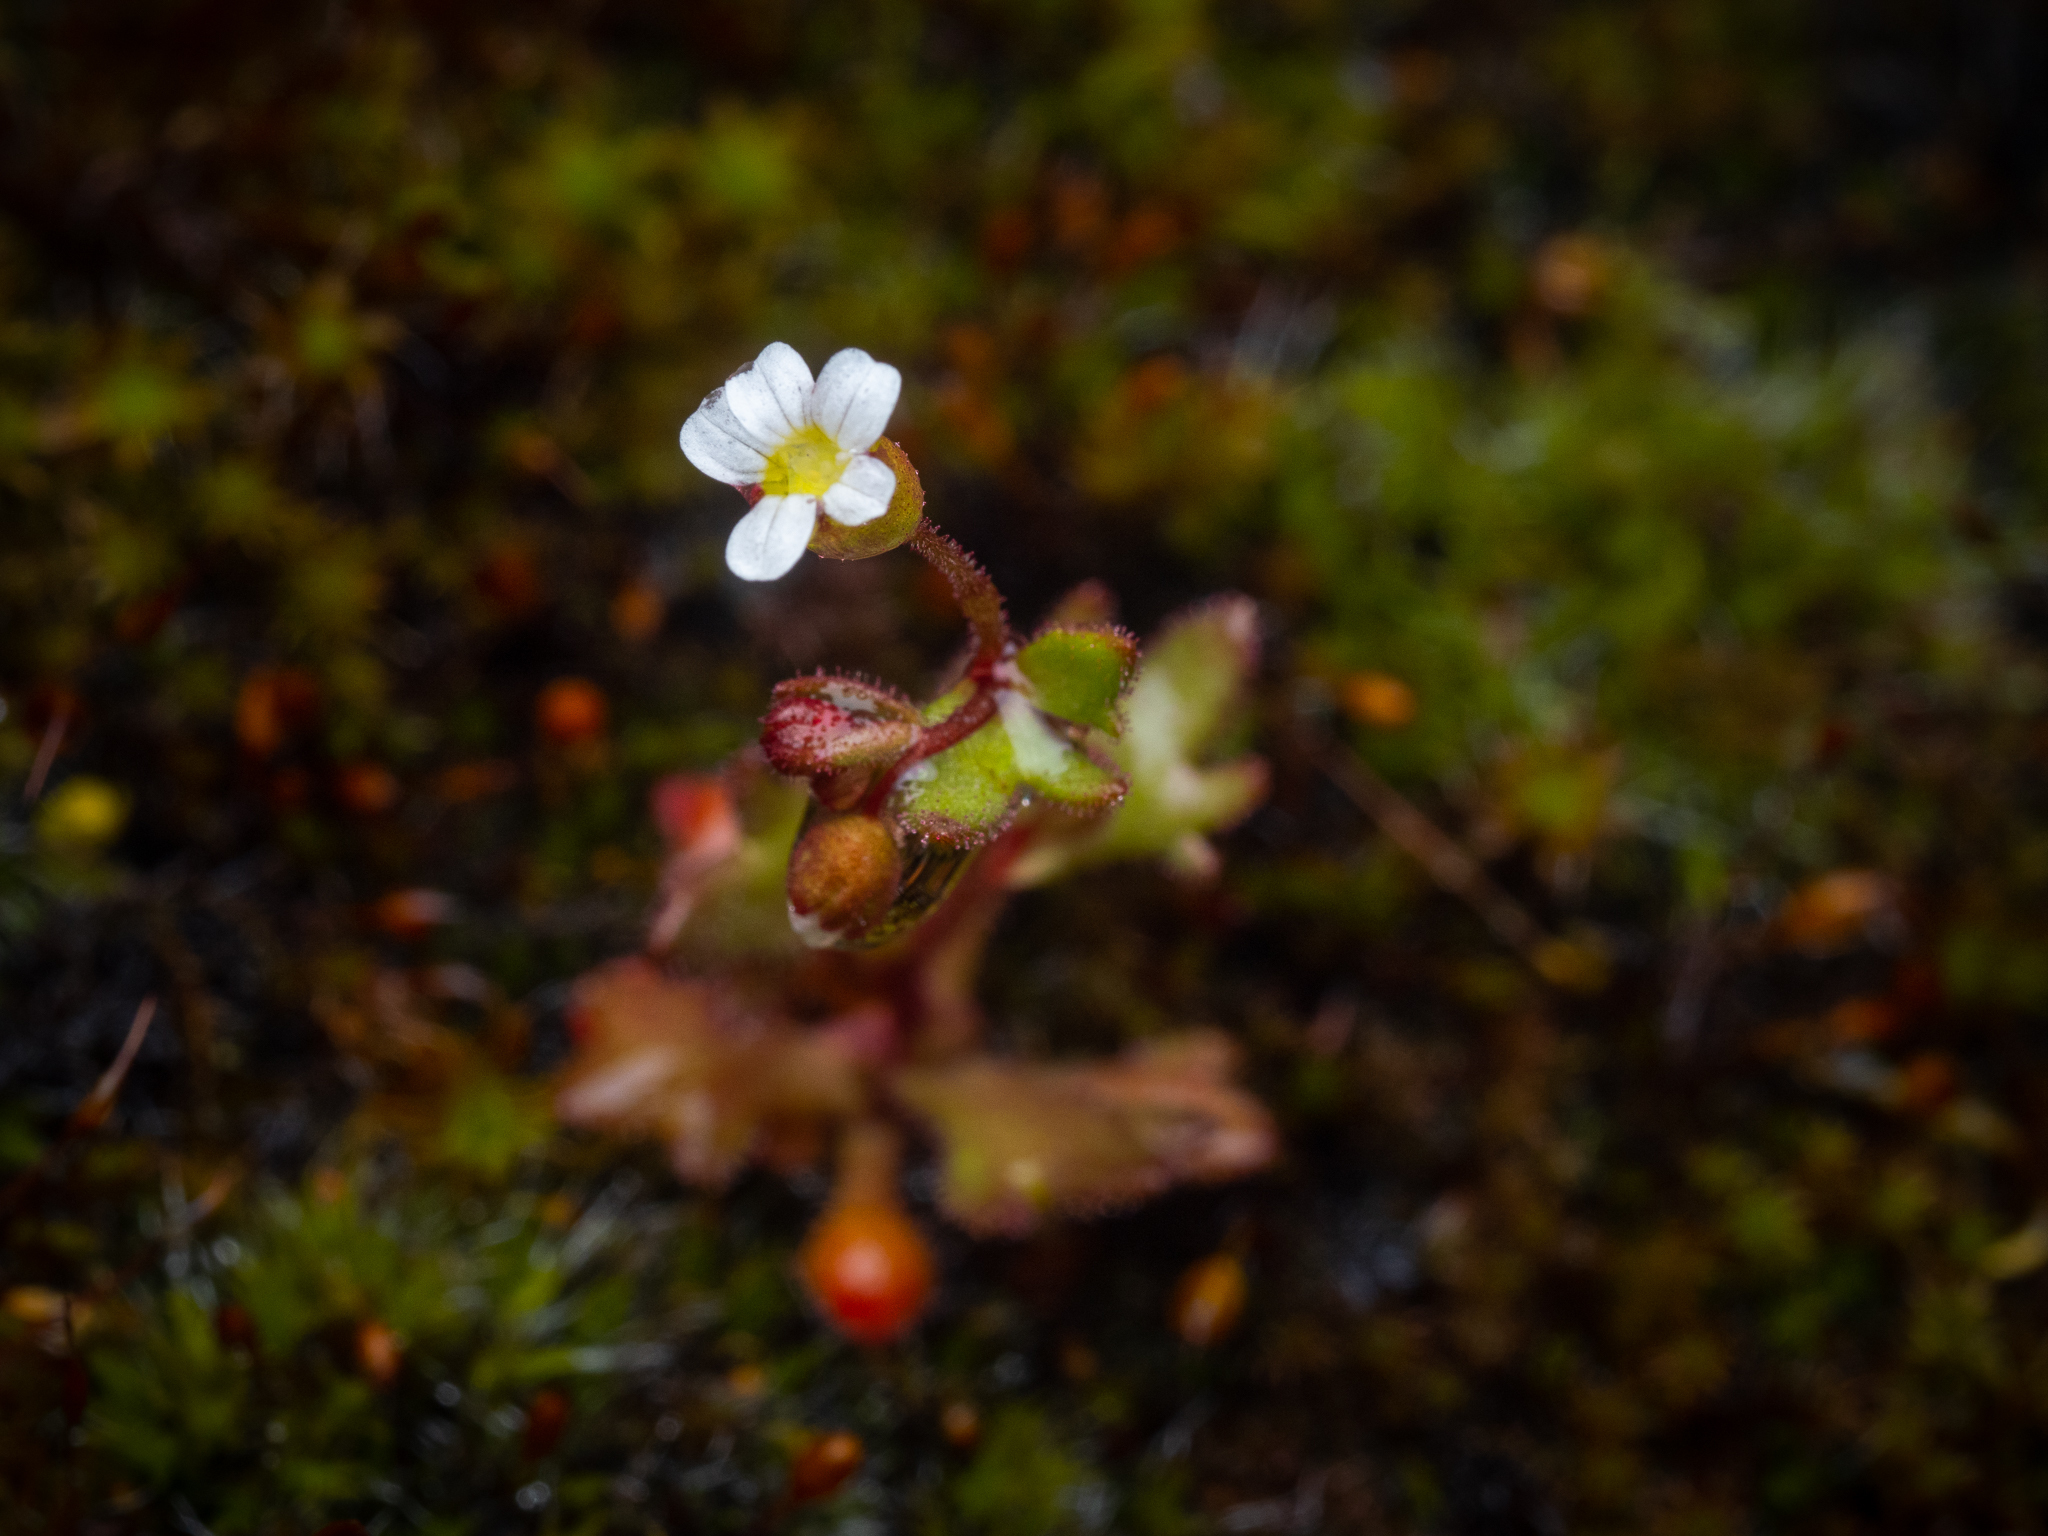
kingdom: Plantae
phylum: Tracheophyta
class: Magnoliopsida
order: Saxifragales
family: Saxifragaceae
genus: Saxifraga
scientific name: Saxifraga tridactylites
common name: Rue-leaved saxifrage
